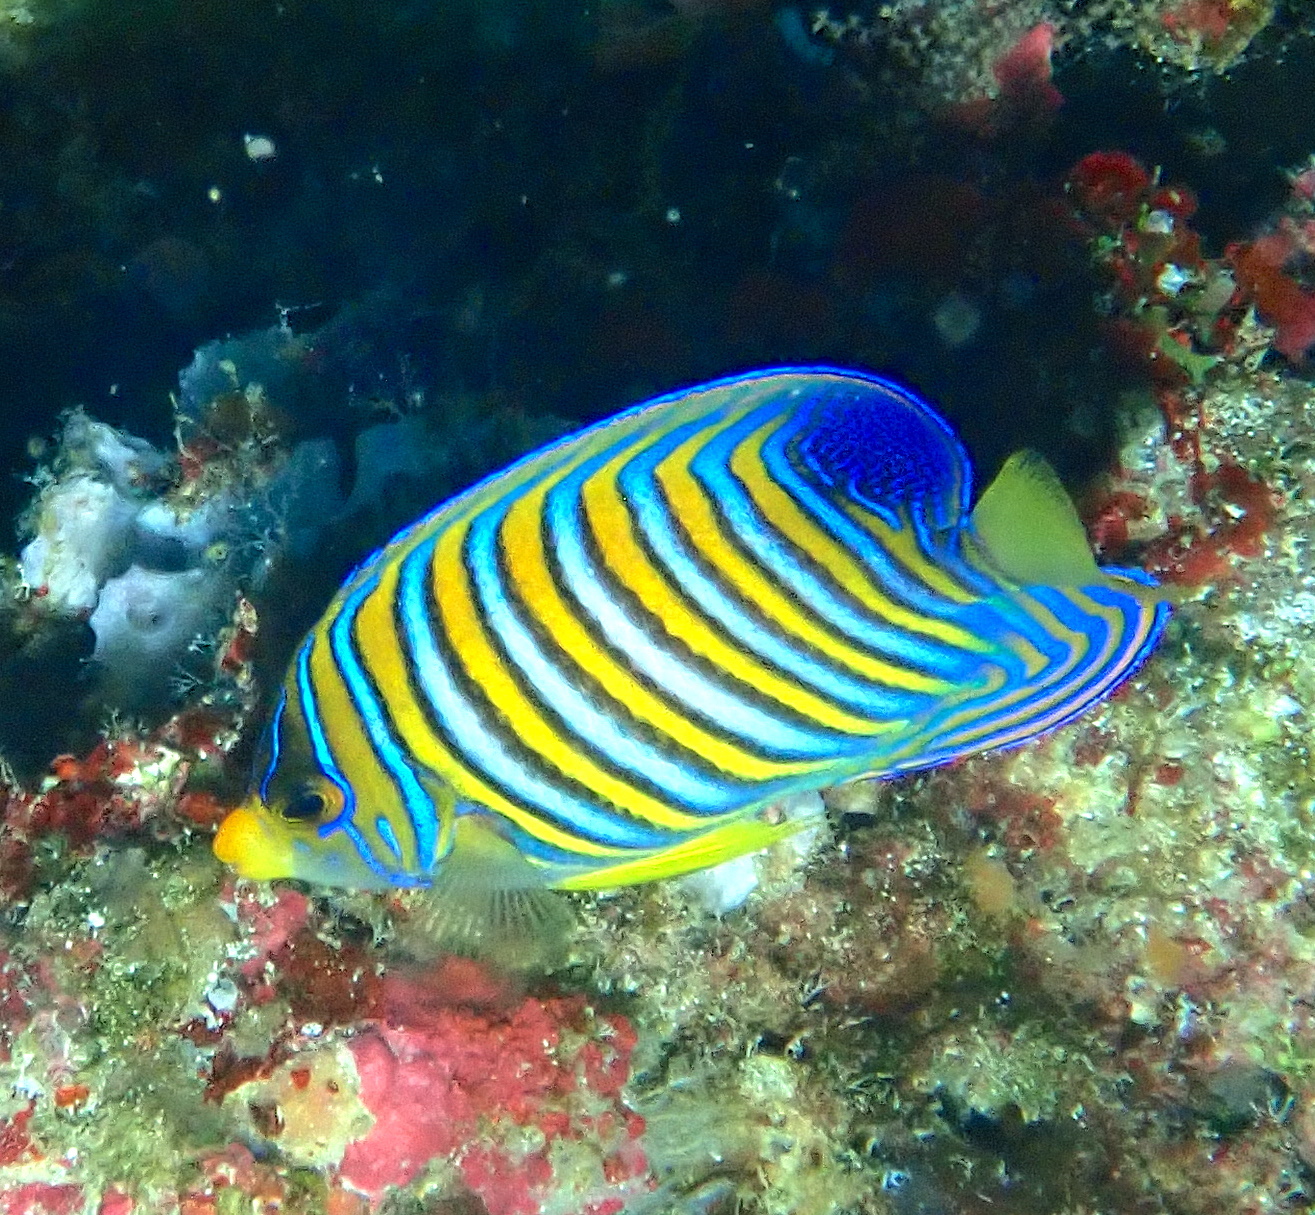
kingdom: Animalia
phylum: Chordata
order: Perciformes
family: Pomacanthidae
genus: Pygoplites
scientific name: Pygoplites diacanthus
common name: Regal angelfish
